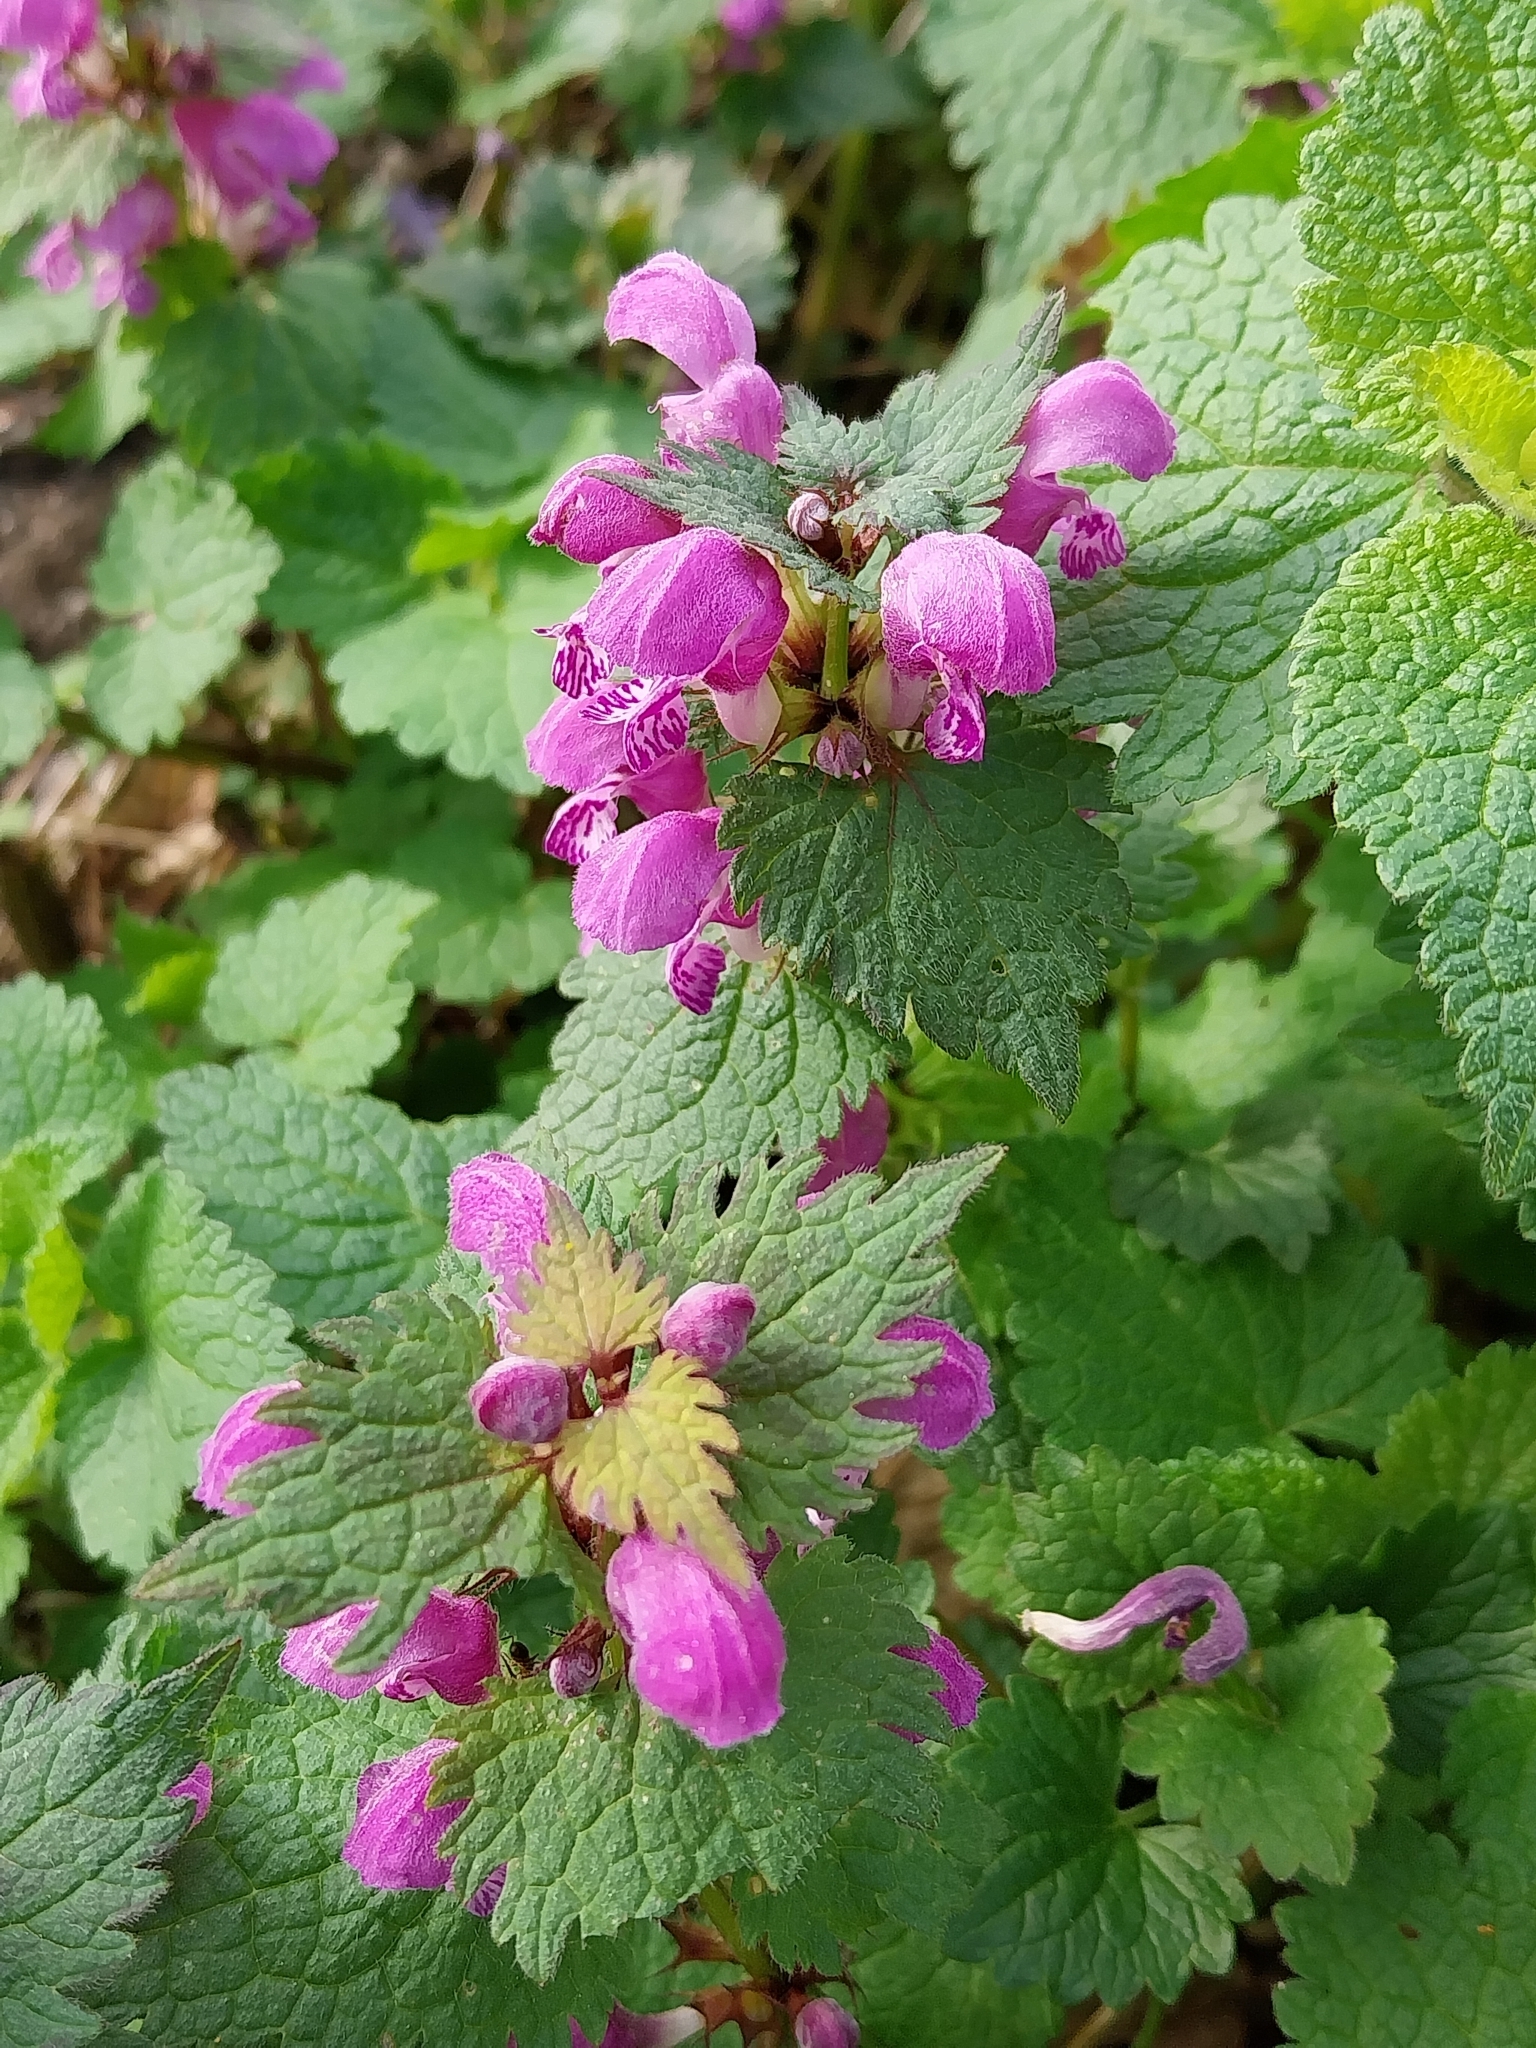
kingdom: Plantae
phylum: Tracheophyta
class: Magnoliopsida
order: Lamiales
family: Lamiaceae
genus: Lamium
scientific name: Lamium maculatum
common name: Spotted dead-nettle
